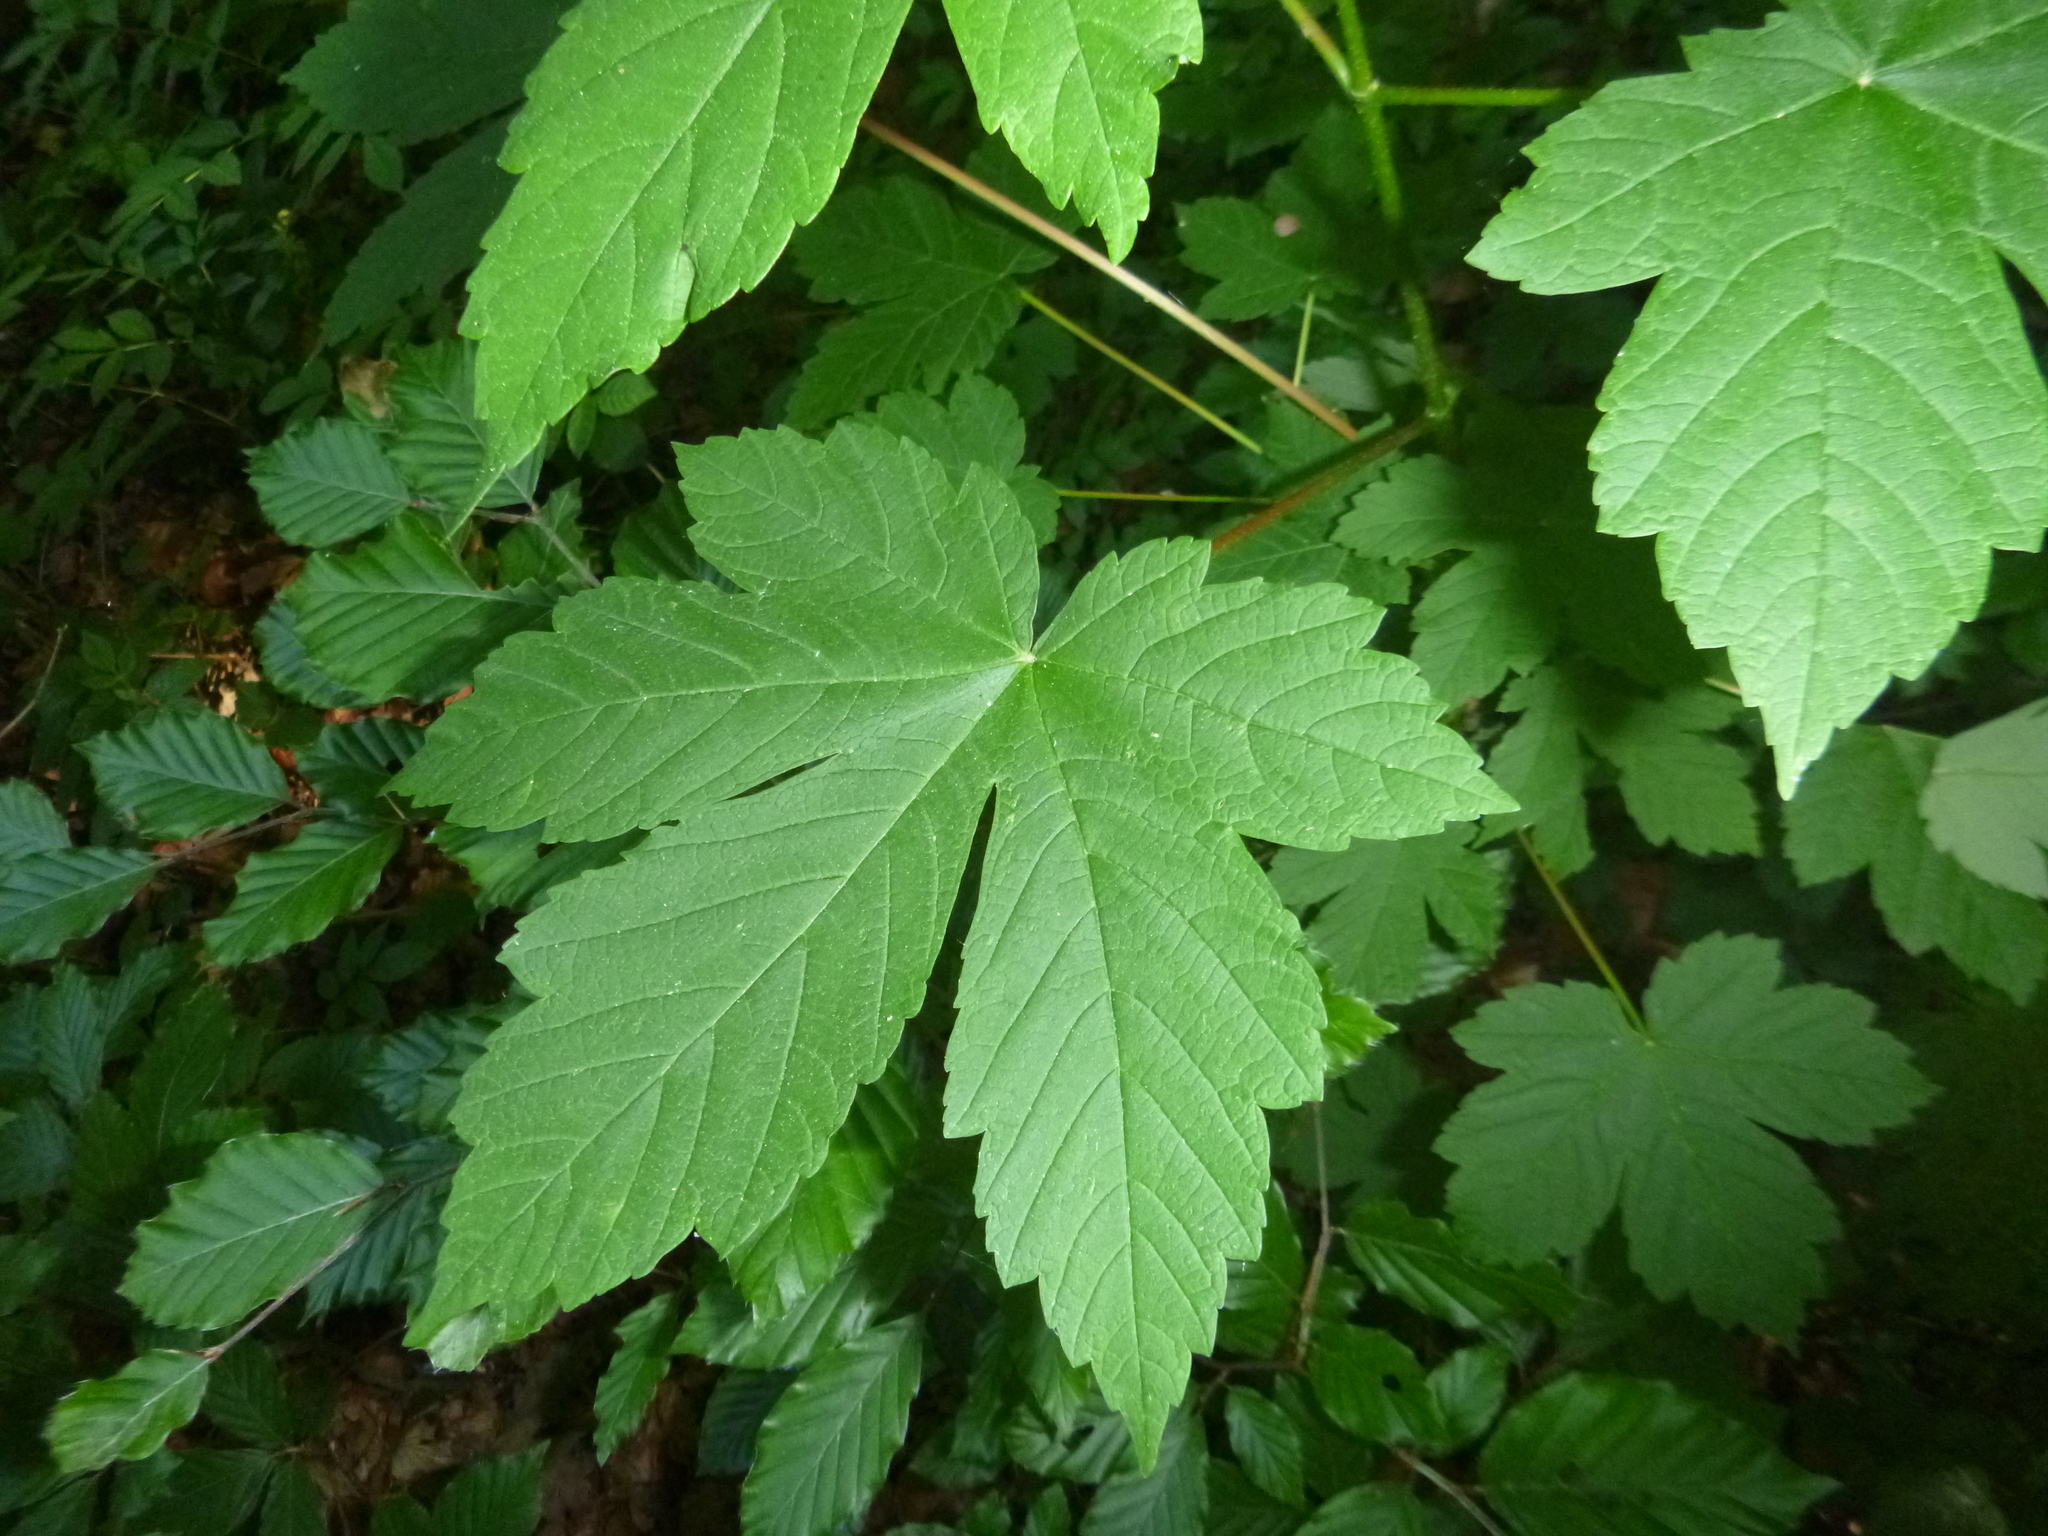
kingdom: Plantae
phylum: Tracheophyta
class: Magnoliopsida
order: Sapindales
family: Sapindaceae
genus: Acer
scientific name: Acer pseudoplatanus
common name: Sycamore
